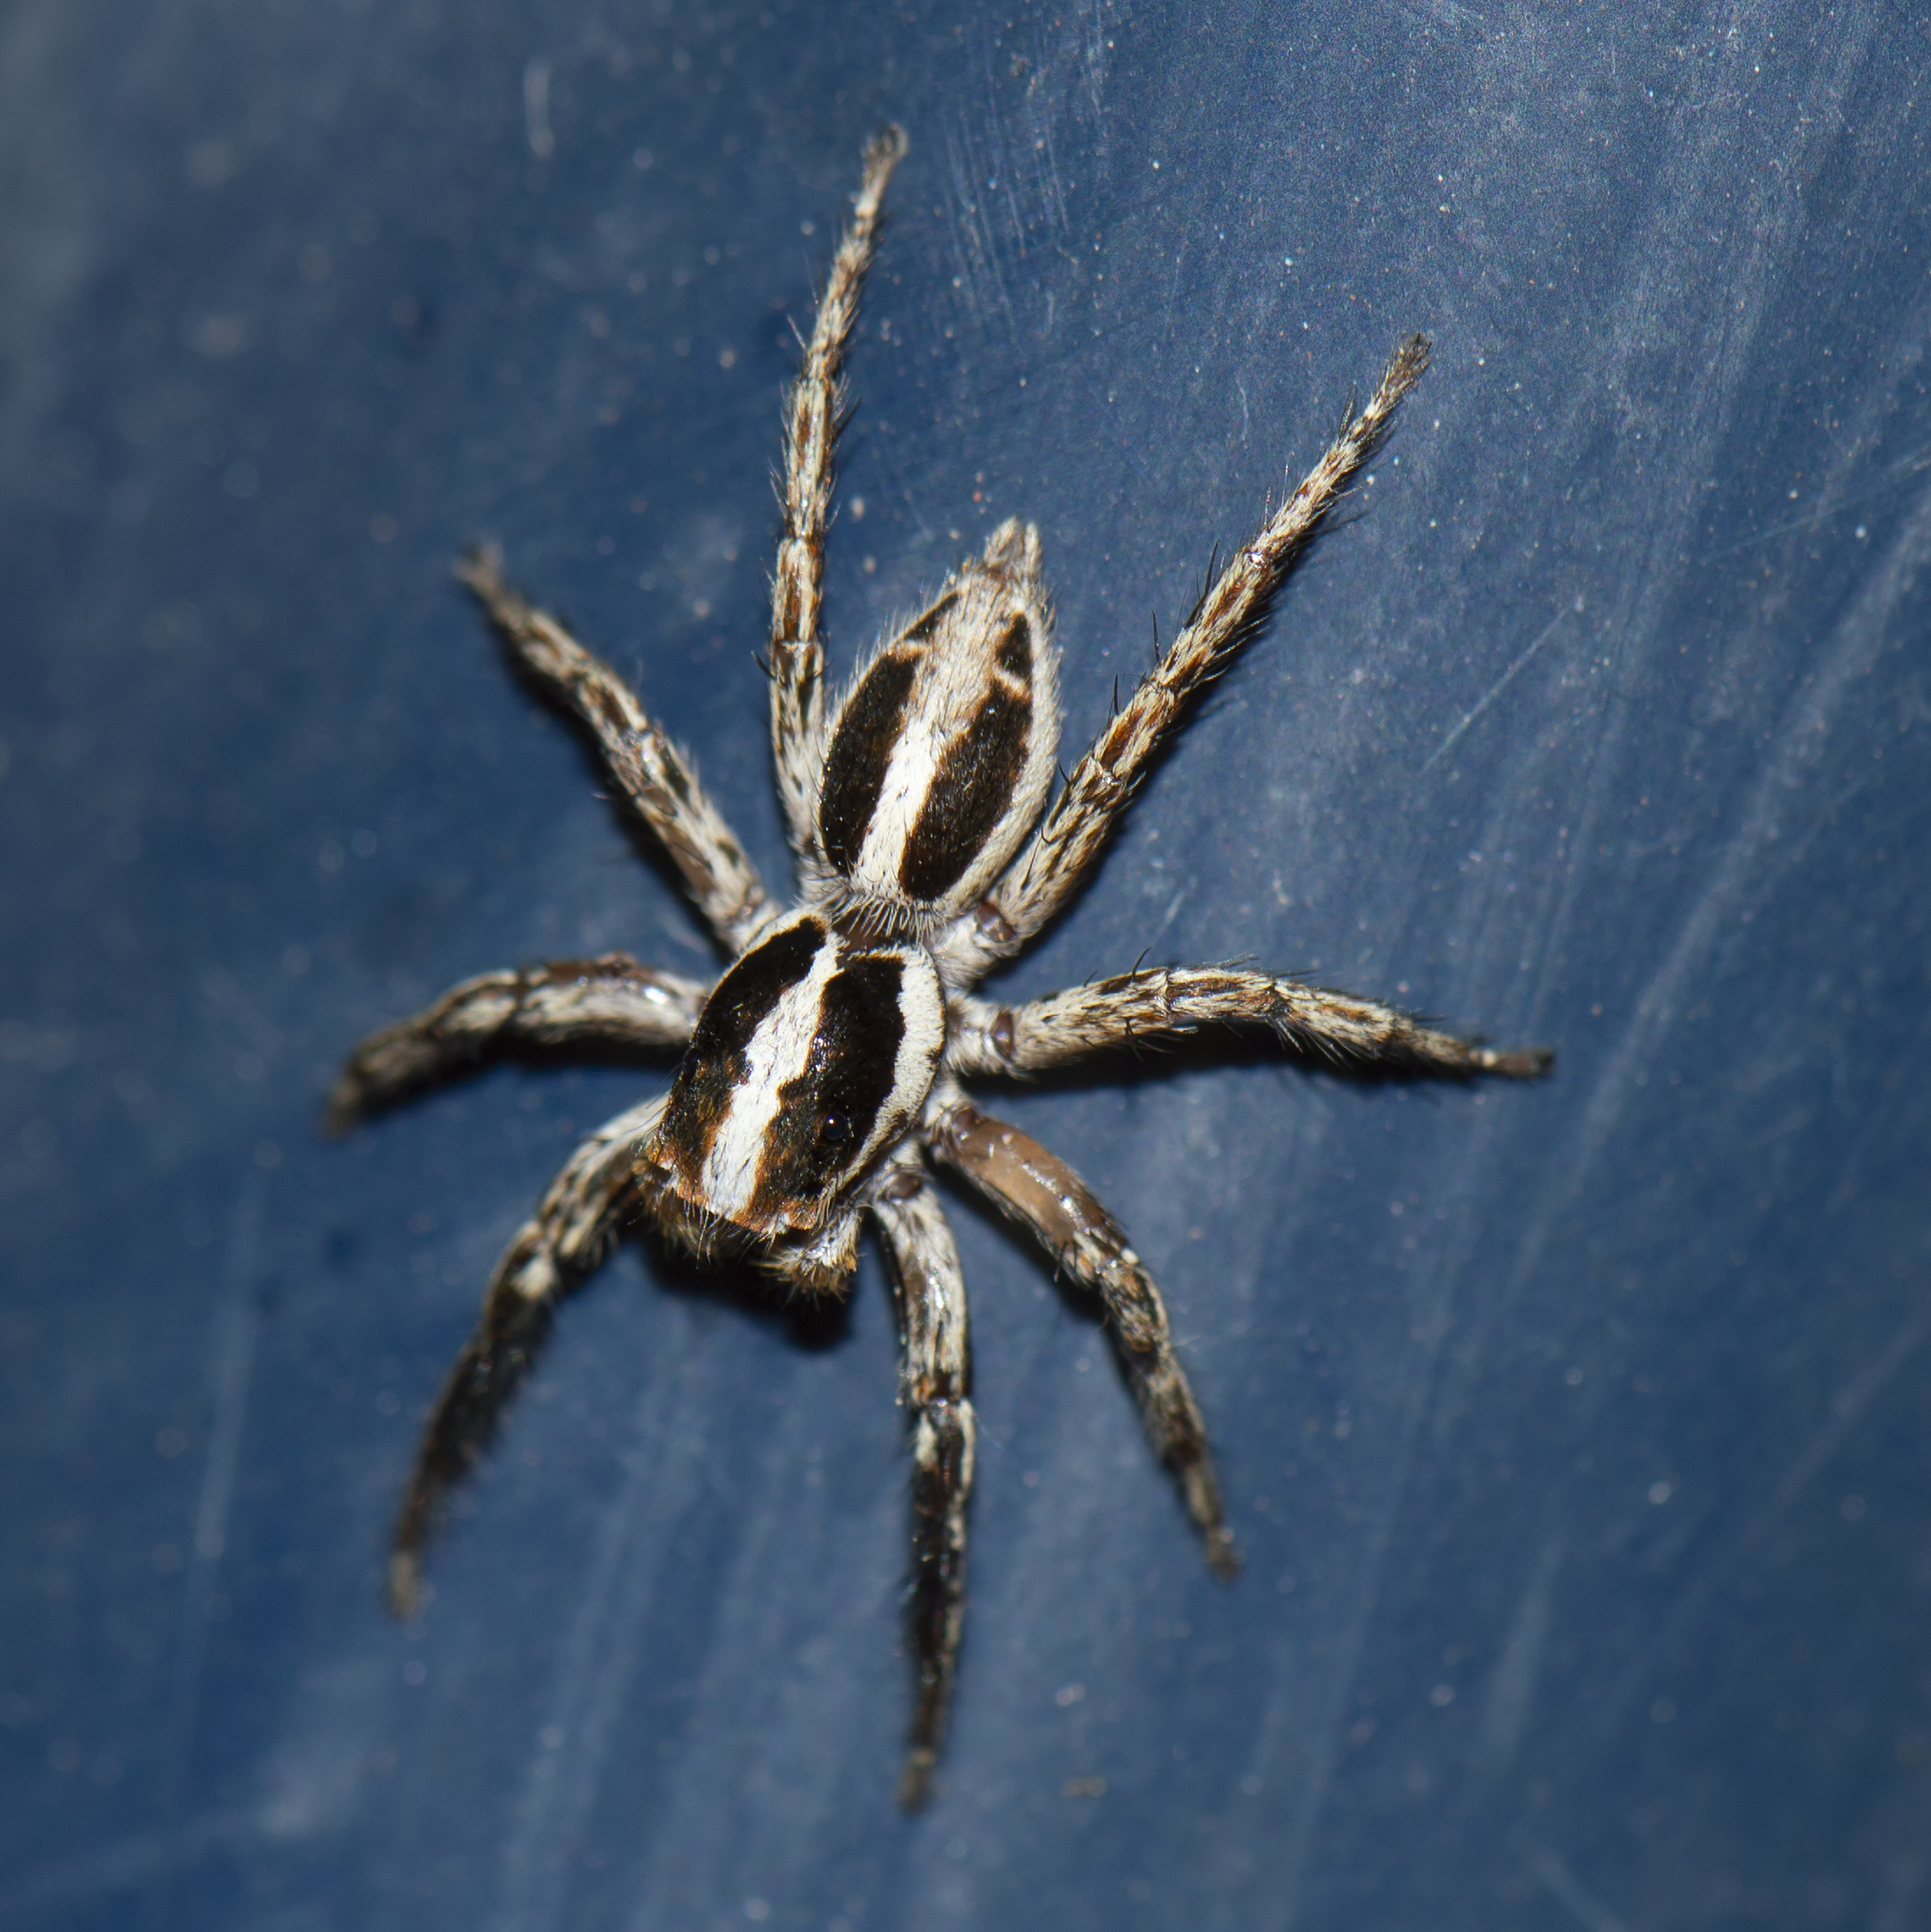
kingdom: Animalia
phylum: Arthropoda
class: Arachnida
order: Araneae
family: Salticidae
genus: Plexippus
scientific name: Plexippus paykulli
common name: Pantropical jumper
